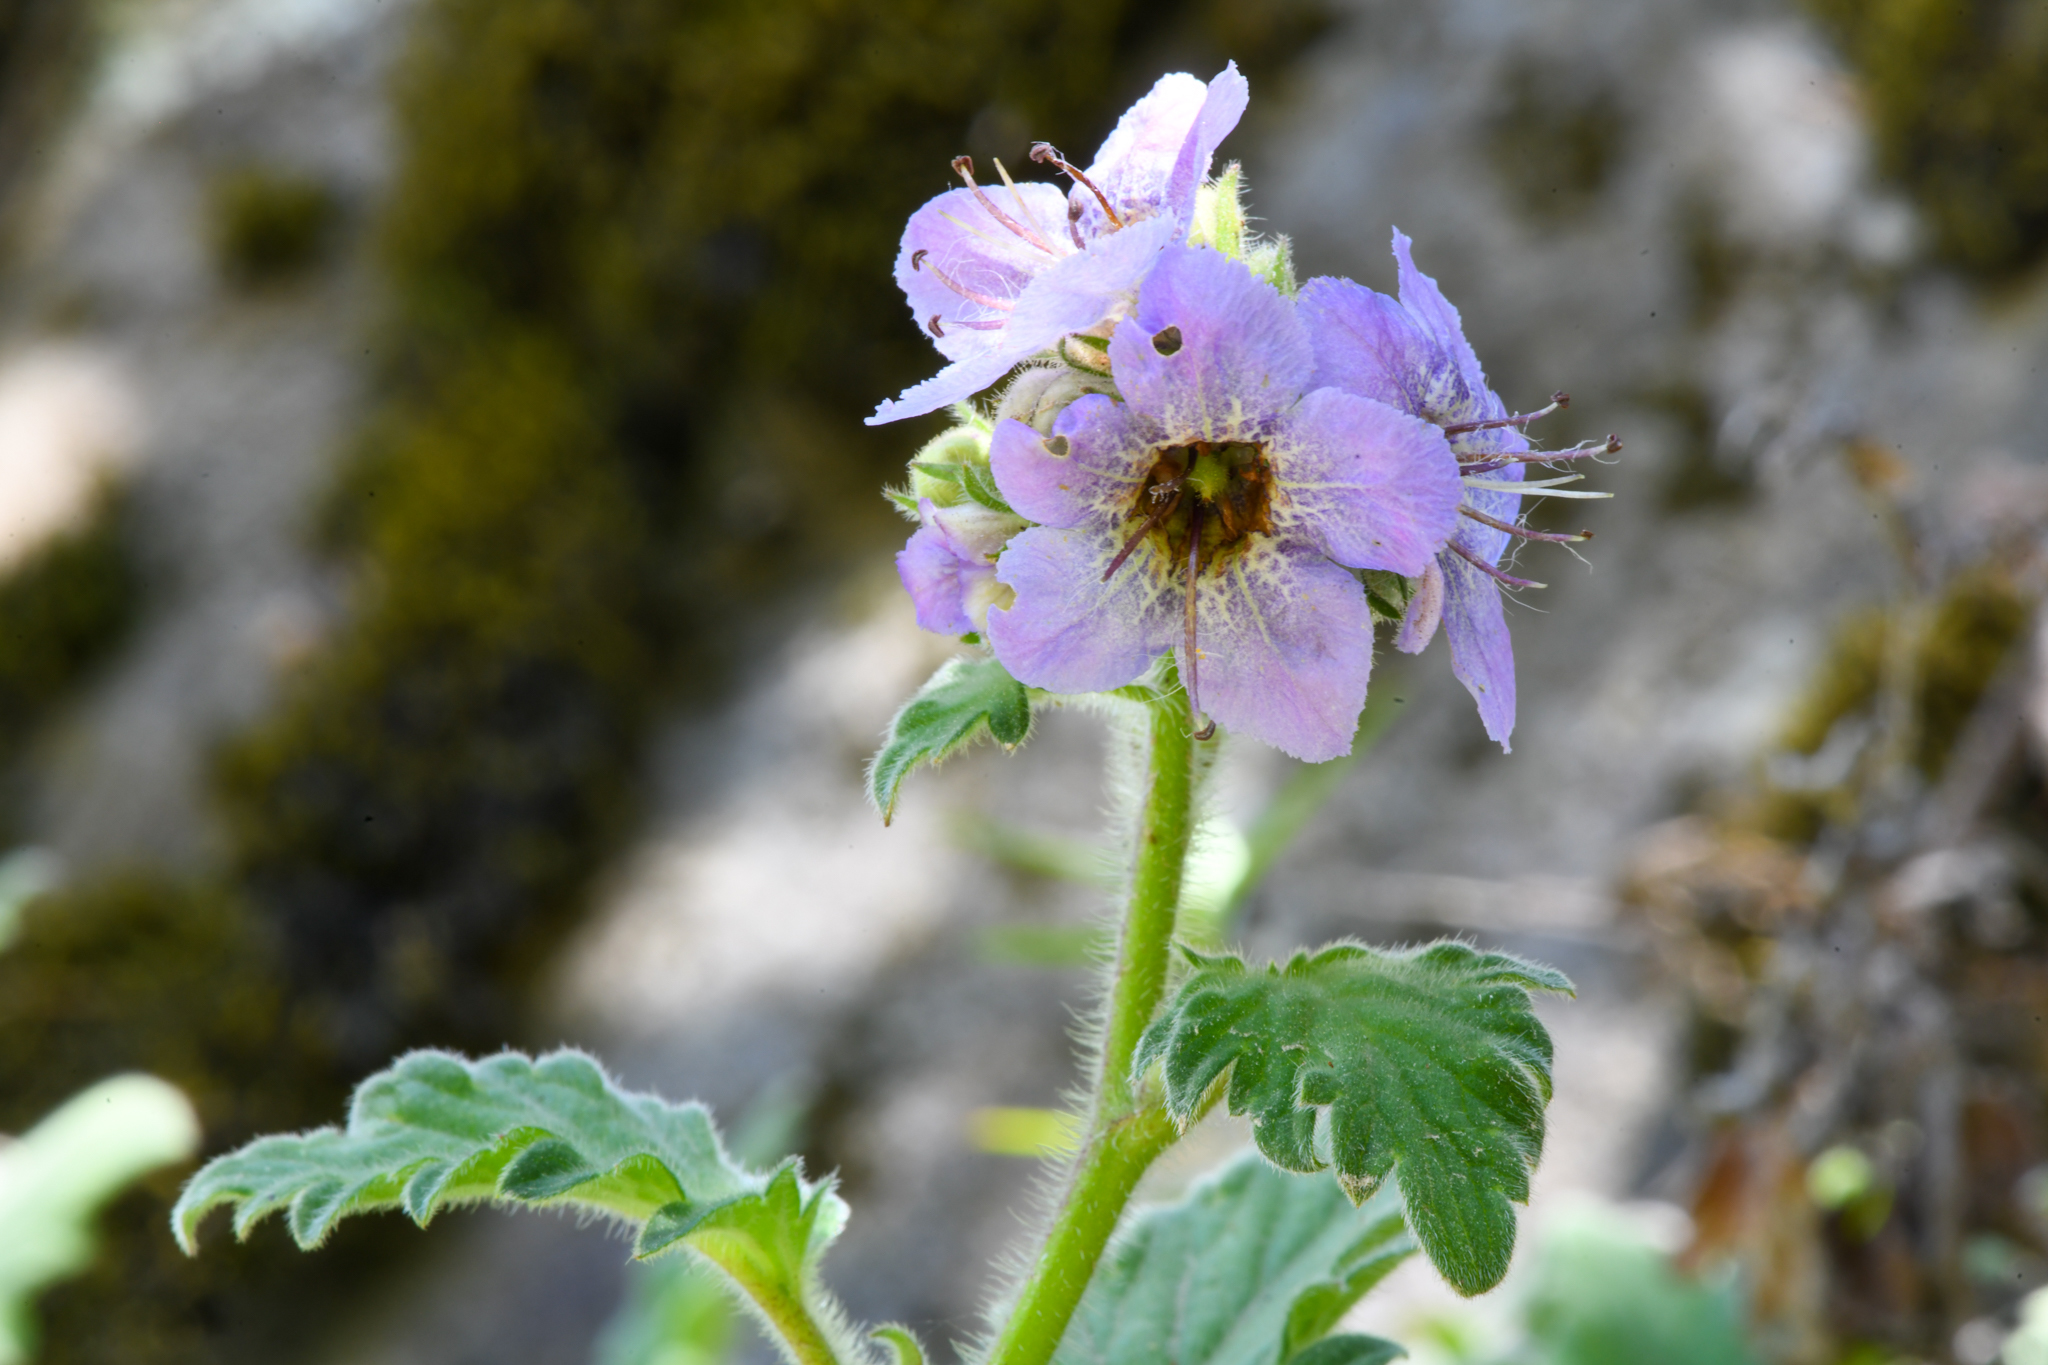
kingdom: Plantae
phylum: Tracheophyta
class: Magnoliopsida
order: Boraginales
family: Hydrophyllaceae
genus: Phacelia
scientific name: Phacelia bolanderi
